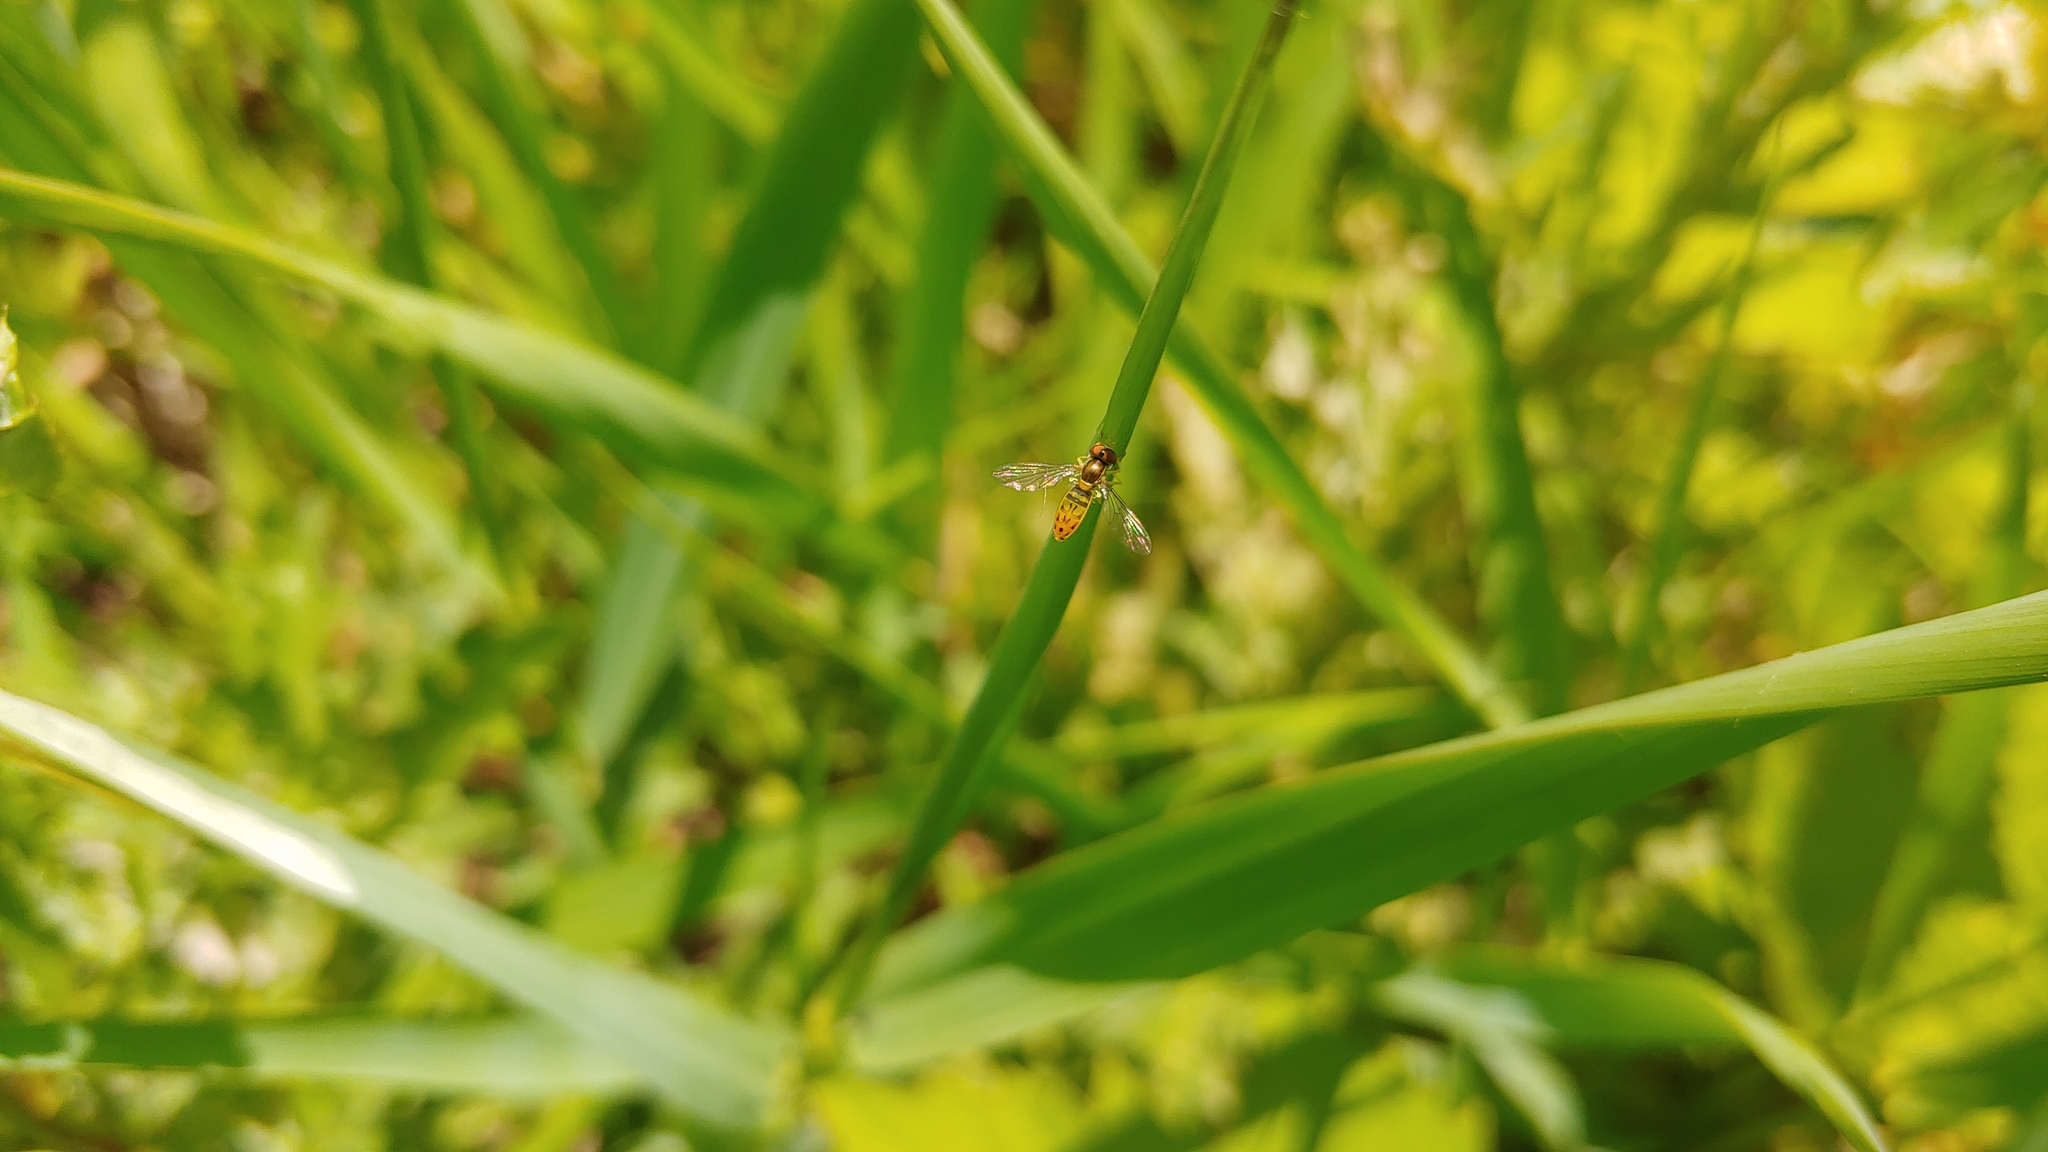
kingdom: Animalia
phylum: Arthropoda
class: Insecta
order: Diptera
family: Syrphidae
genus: Toxomerus
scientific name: Toxomerus marginatus
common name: Syrphid fly
